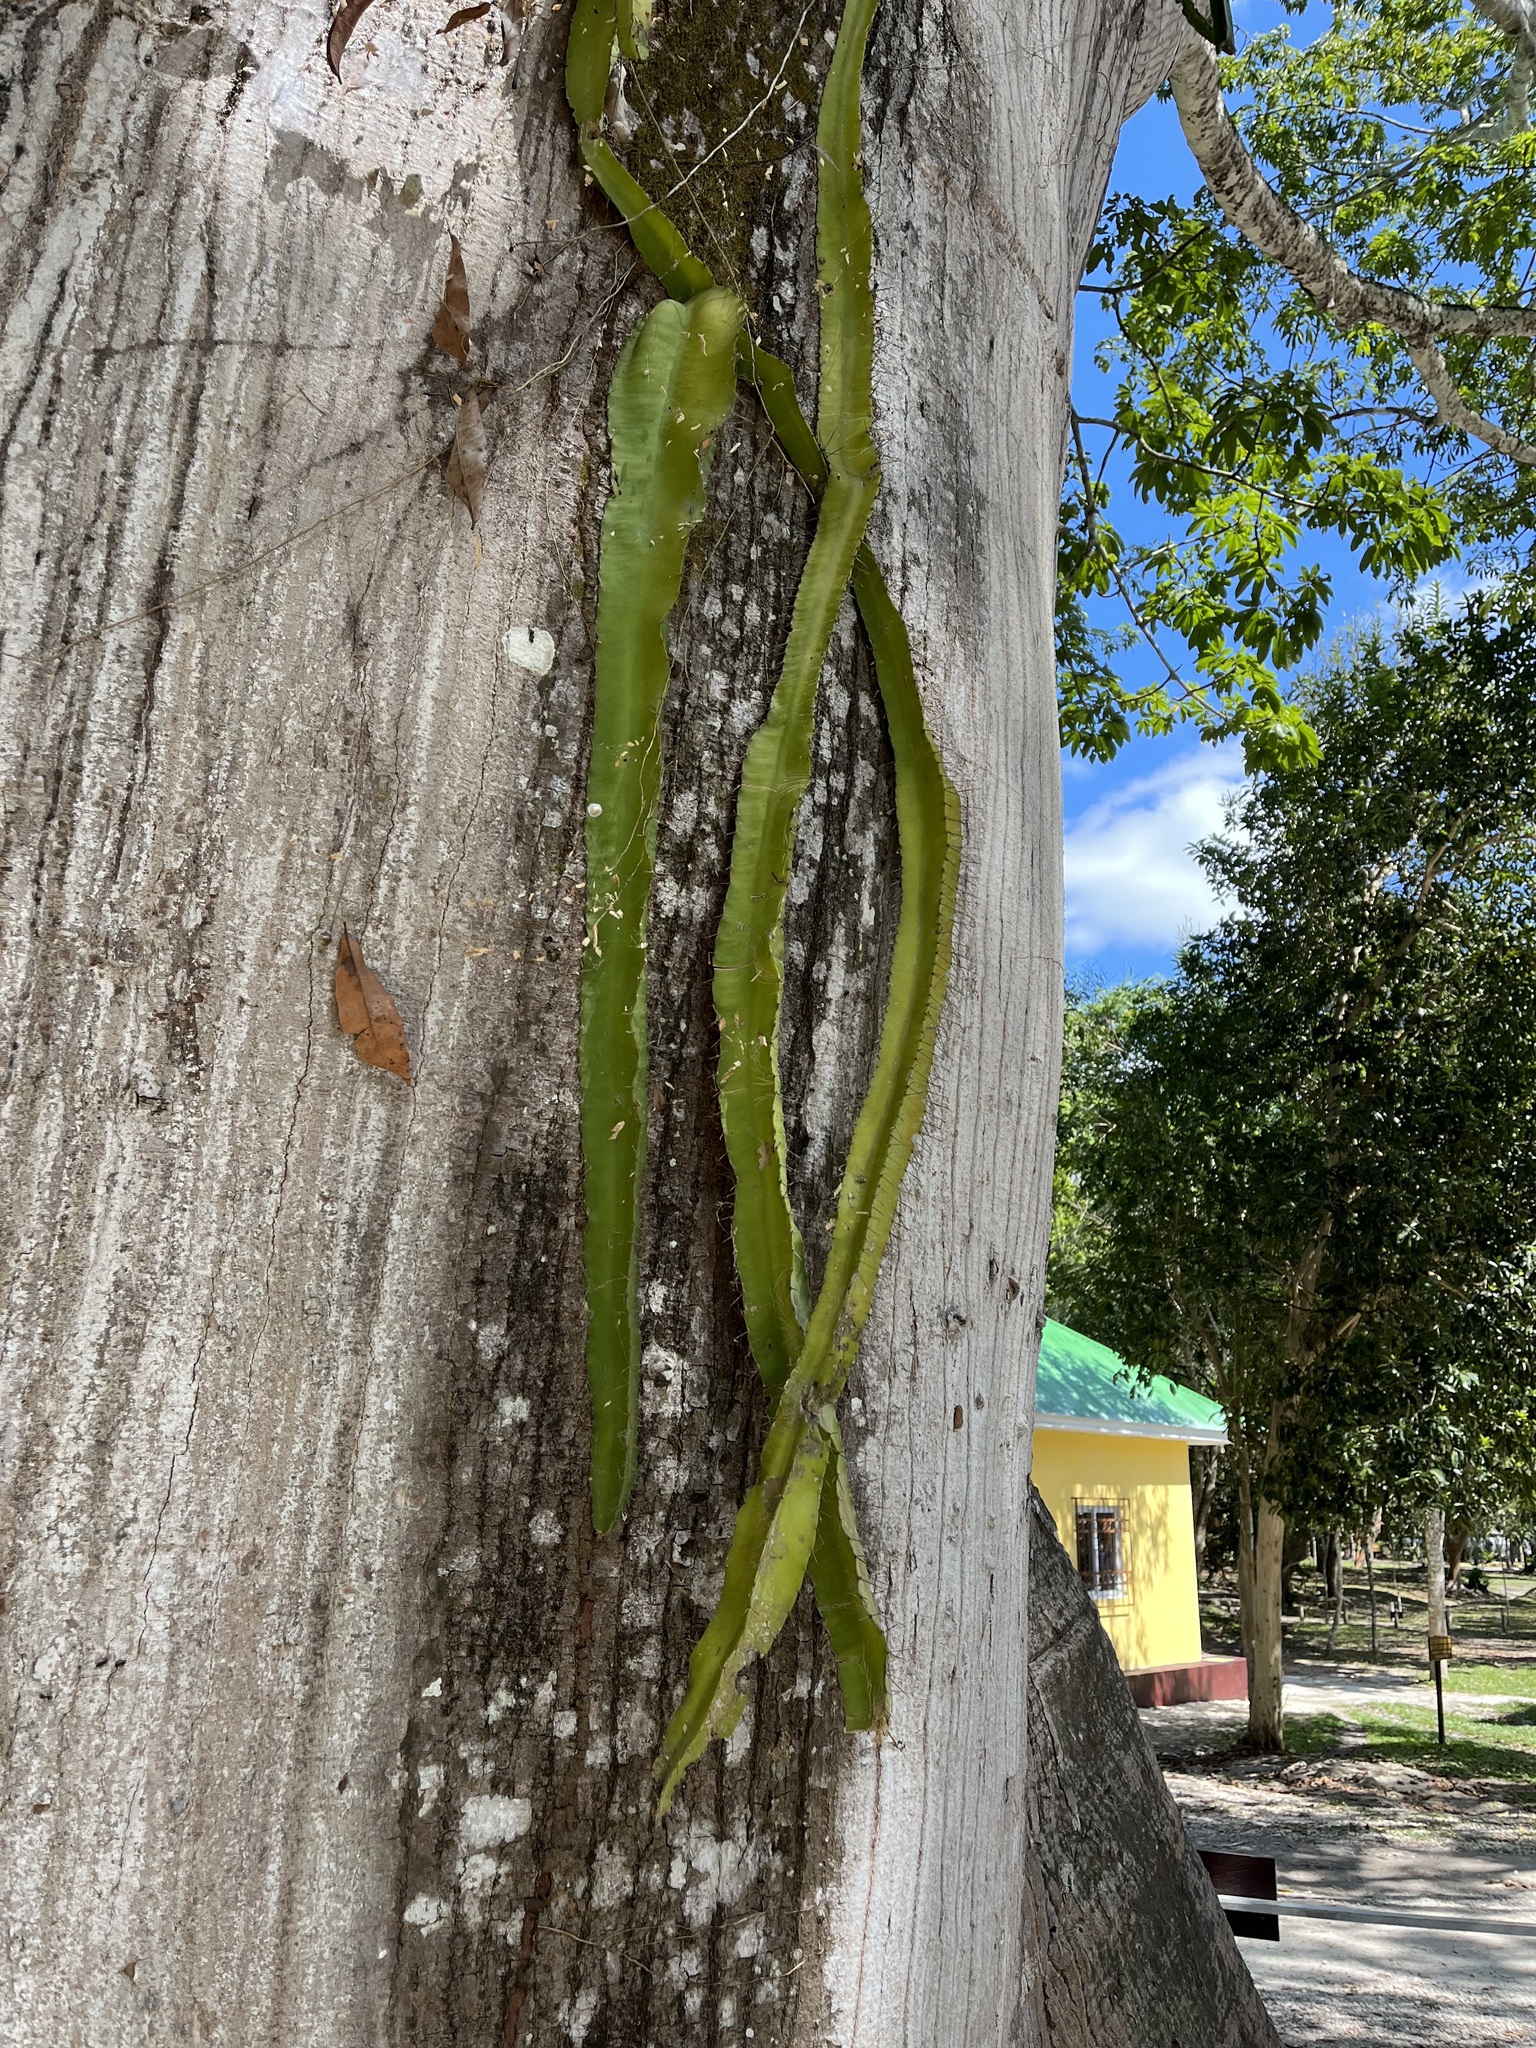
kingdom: Plantae
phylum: Tracheophyta
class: Magnoliopsida
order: Caryophyllales
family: Cactaceae
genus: Deamia
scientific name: Deamia testudo
